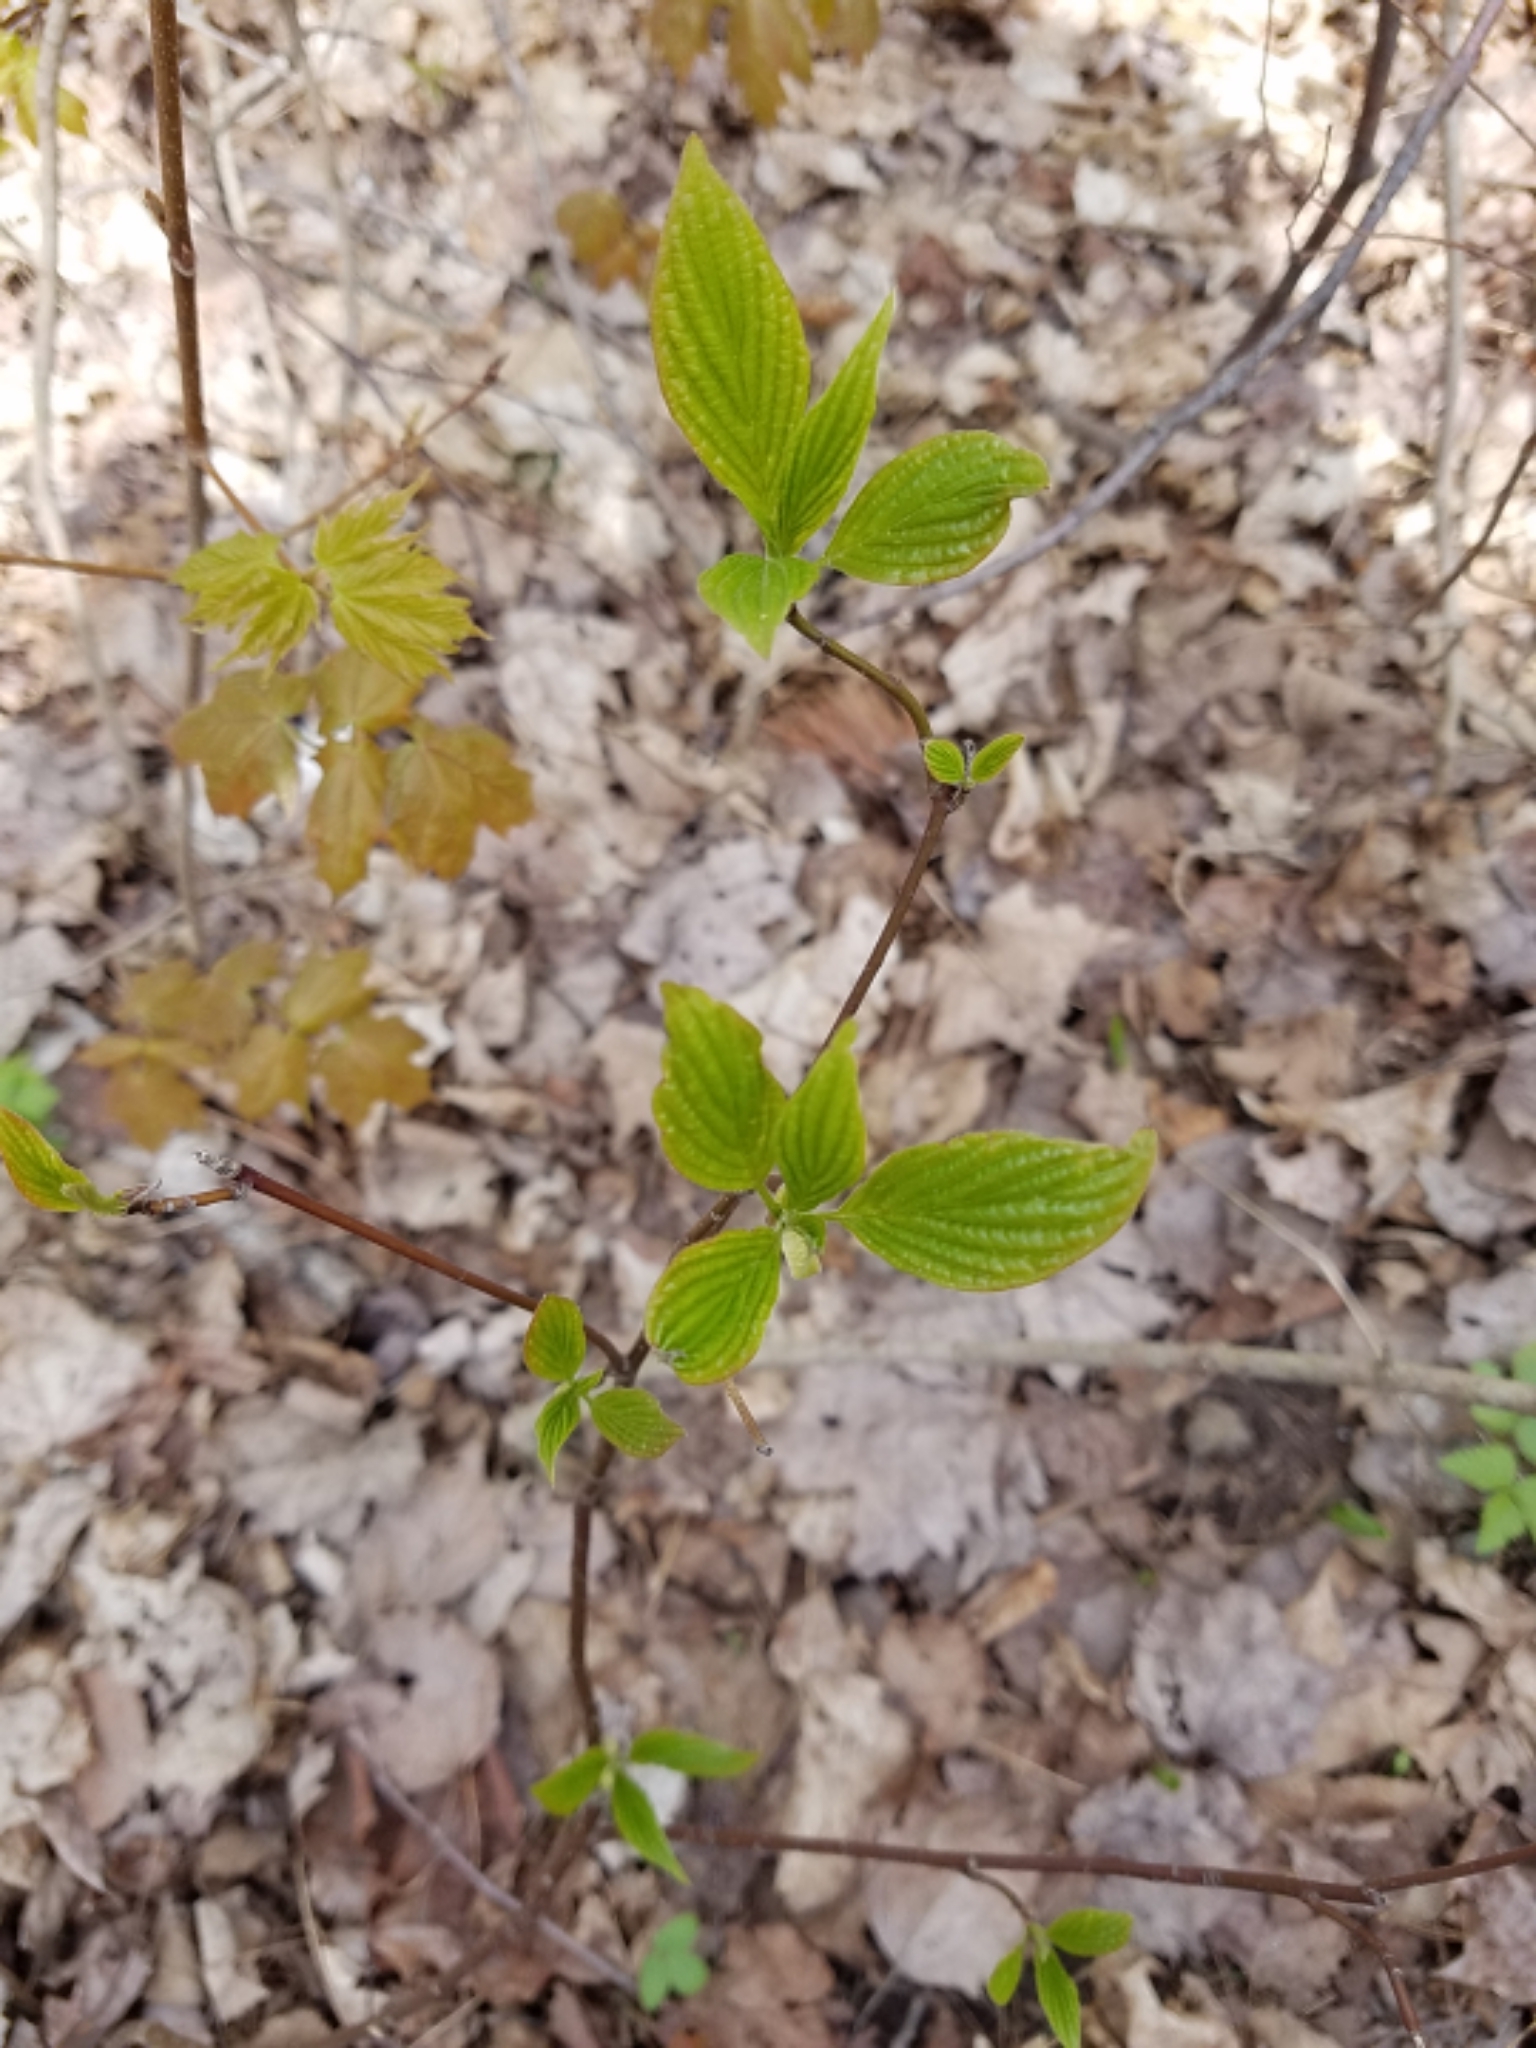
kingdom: Plantae
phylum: Tracheophyta
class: Magnoliopsida
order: Cornales
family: Cornaceae
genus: Cornus
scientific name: Cornus alternifolia
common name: Pagoda dogwood
